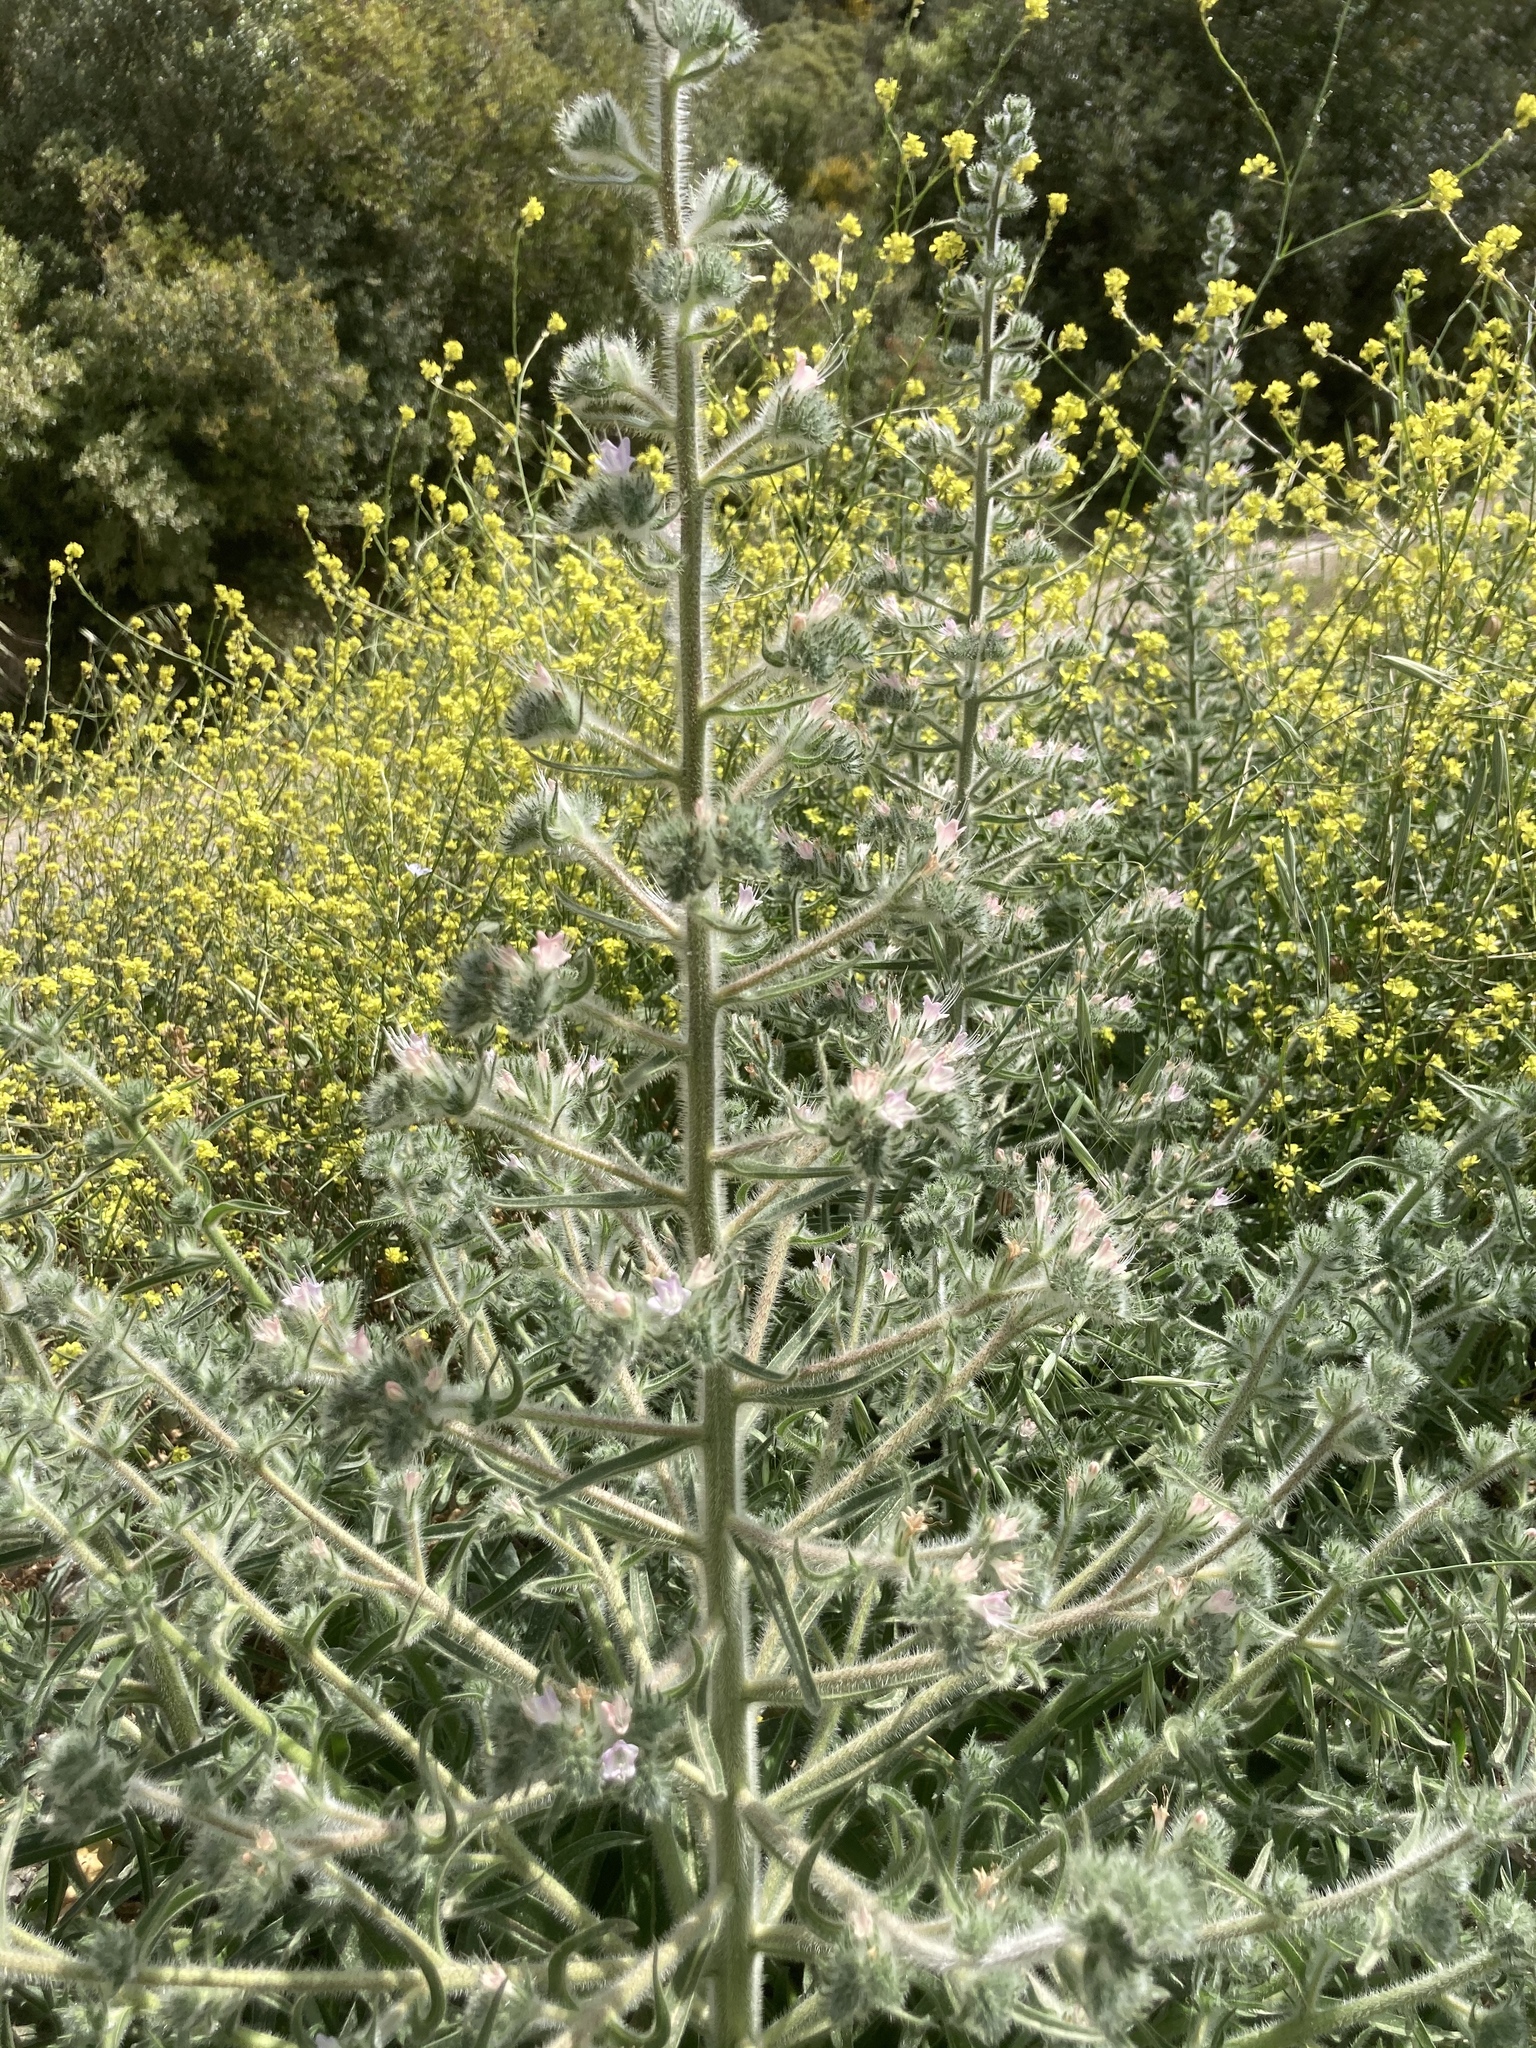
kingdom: Plantae
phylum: Tracheophyta
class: Magnoliopsida
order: Boraginales
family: Boraginaceae
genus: Echium
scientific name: Echium italicum
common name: Italian viper's bugloss
